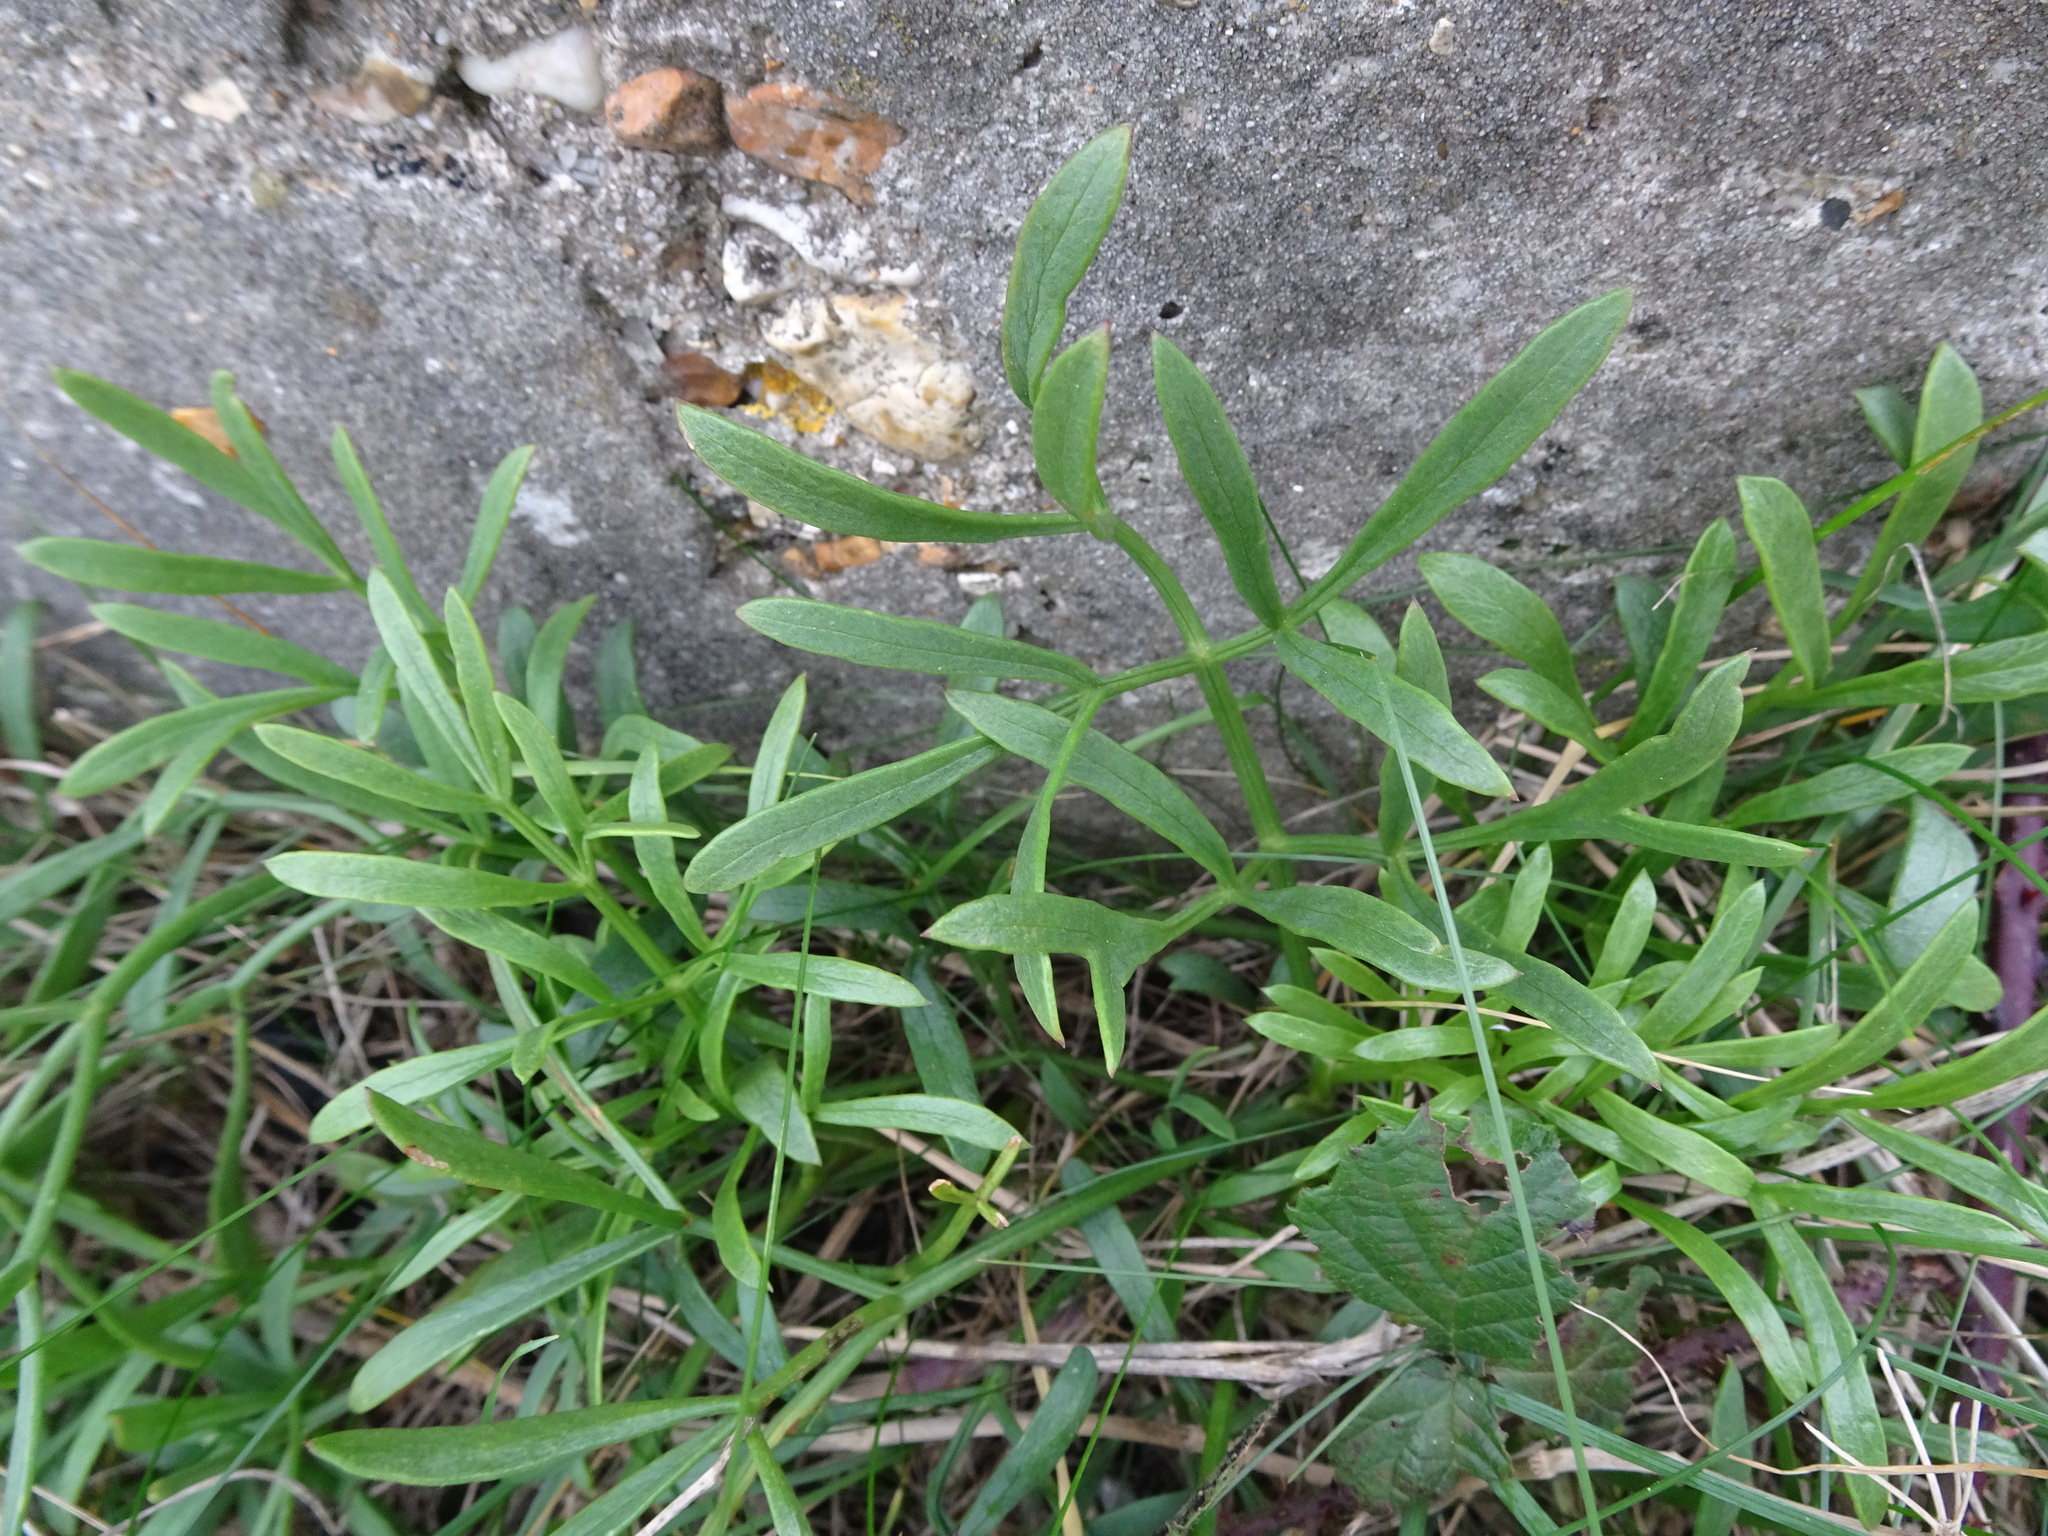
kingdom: Plantae
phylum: Tracheophyta
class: Magnoliopsida
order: Apiales
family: Apiaceae
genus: Crithmum
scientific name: Crithmum maritimum
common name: Rock samphire
